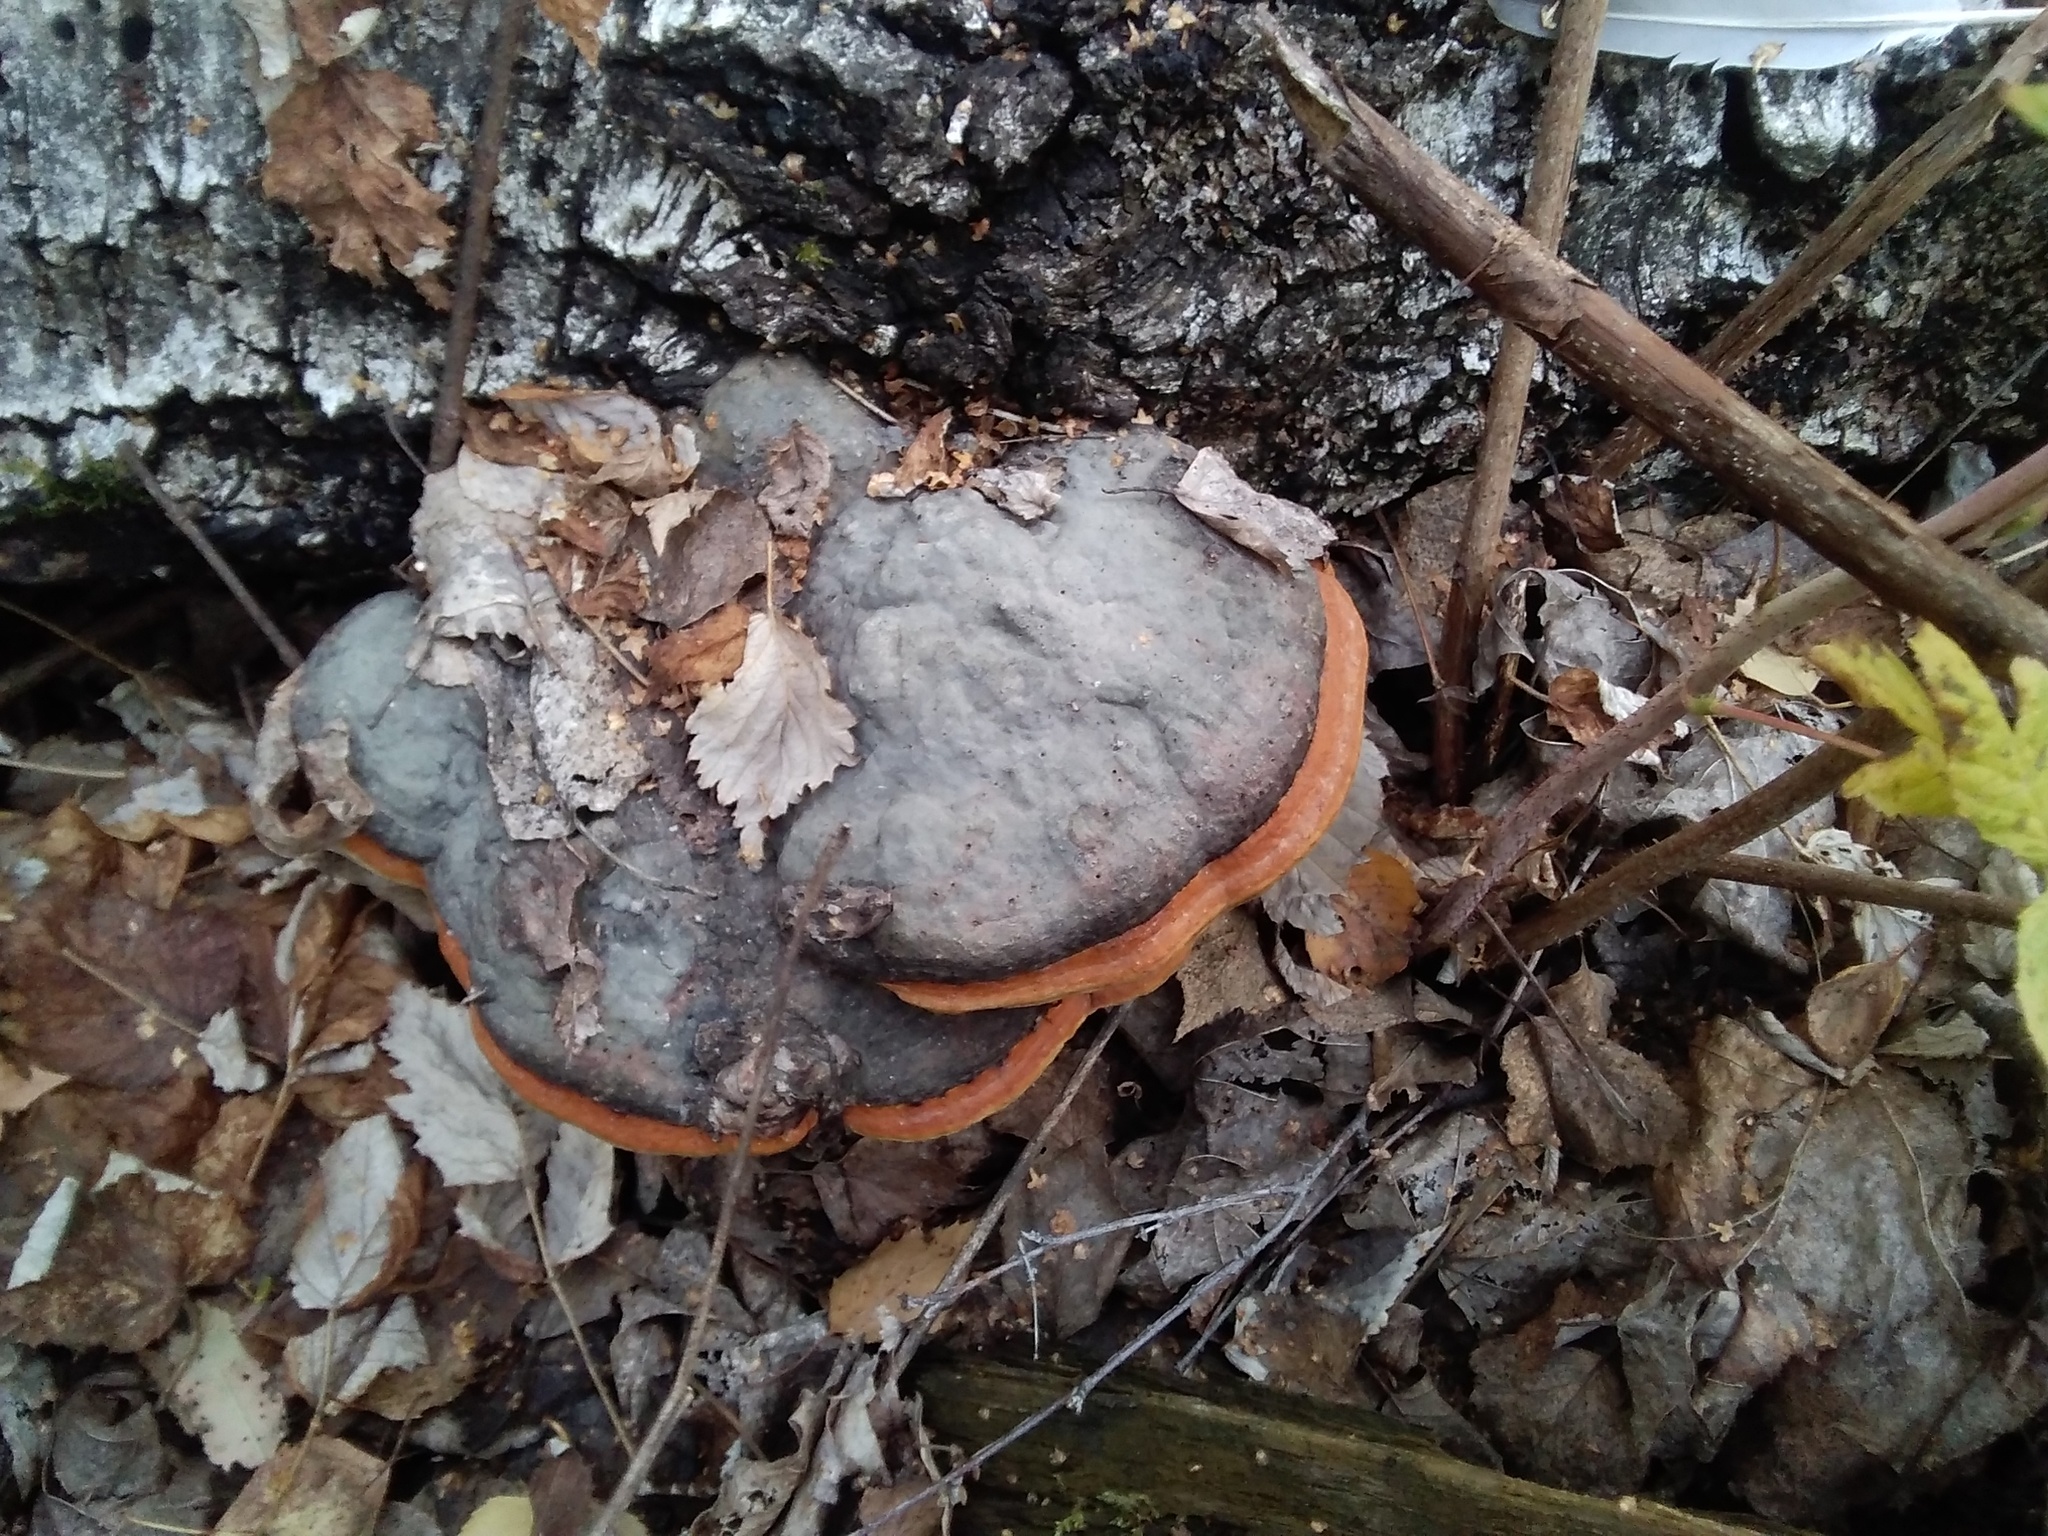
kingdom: Fungi
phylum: Basidiomycota
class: Agaricomycetes
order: Polyporales
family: Fomitopsidaceae
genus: Fomitopsis
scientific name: Fomitopsis pinicola
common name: Red-belted bracket
